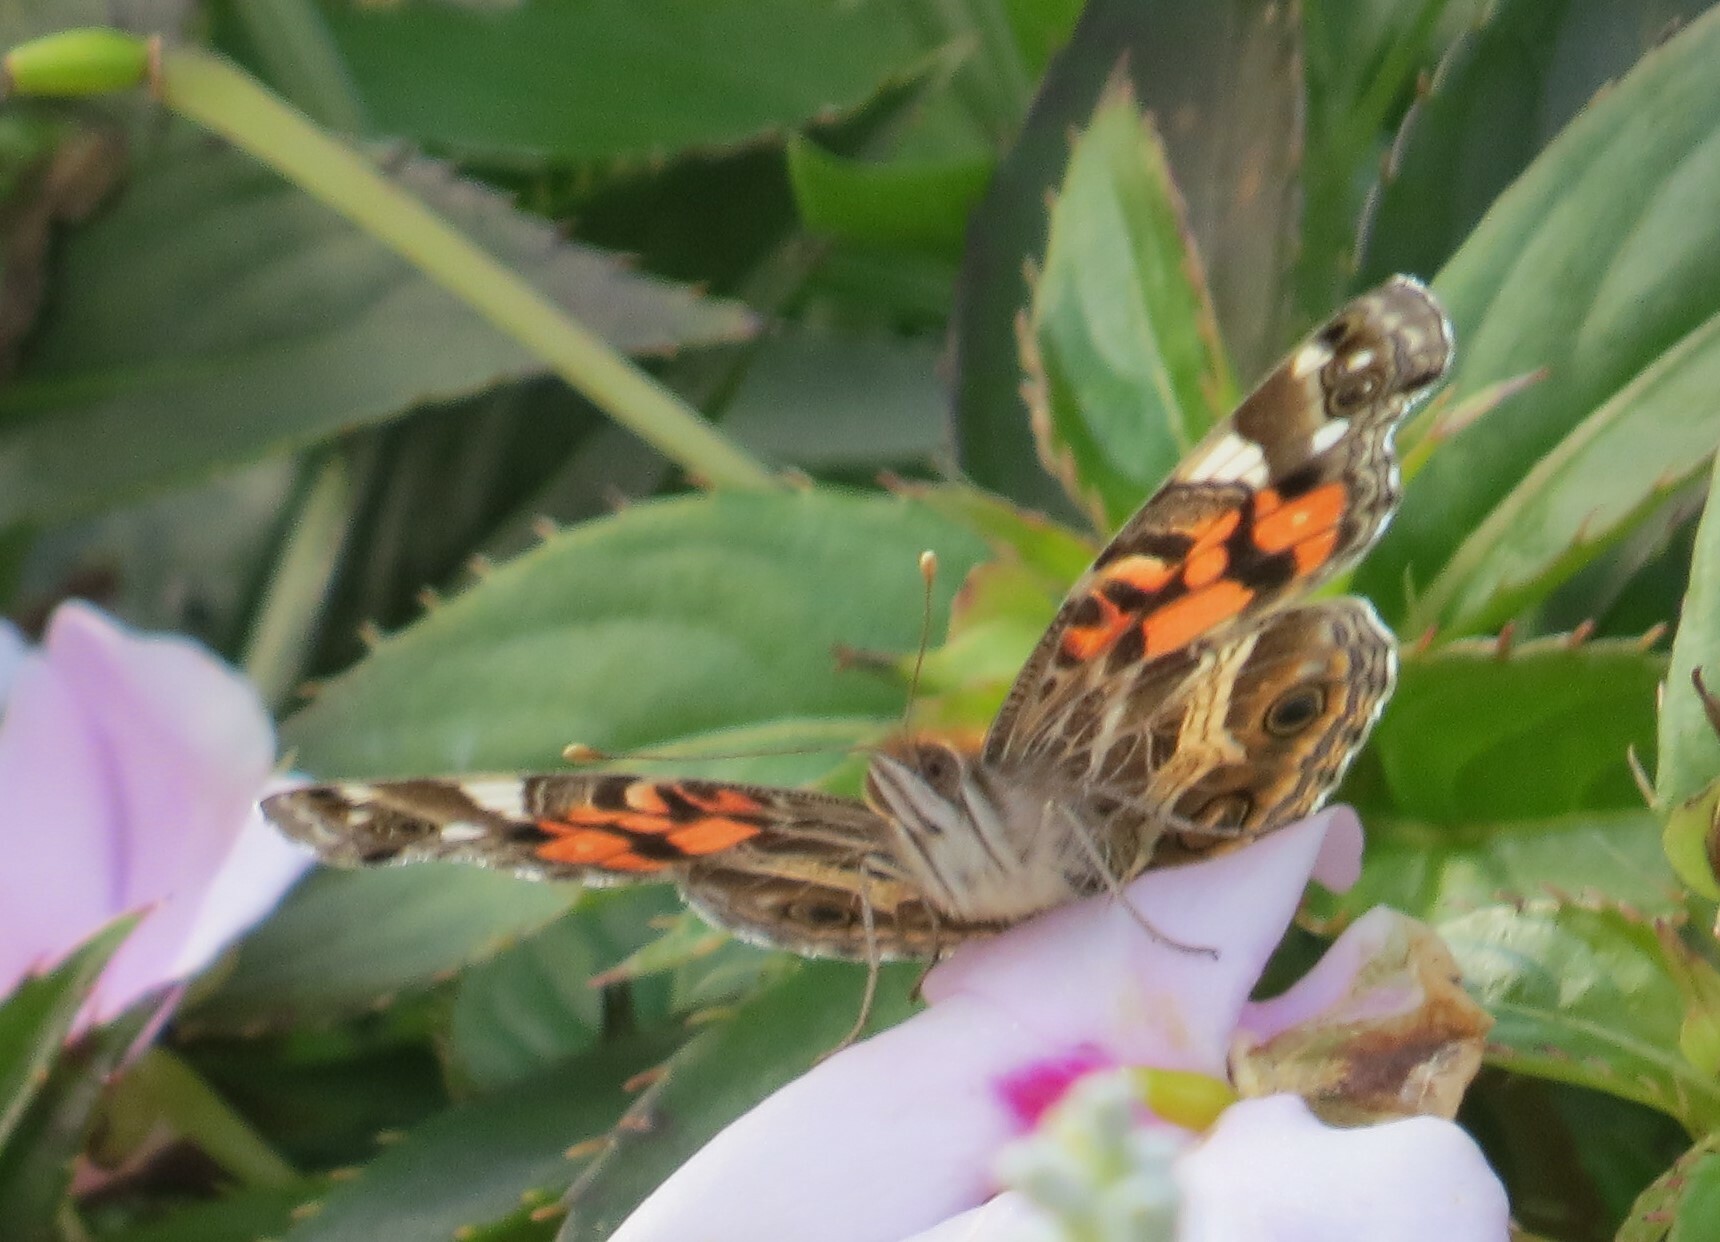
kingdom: Animalia
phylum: Arthropoda
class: Insecta
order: Lepidoptera
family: Nymphalidae
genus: Vanessa
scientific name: Vanessa virginiensis
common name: American lady
